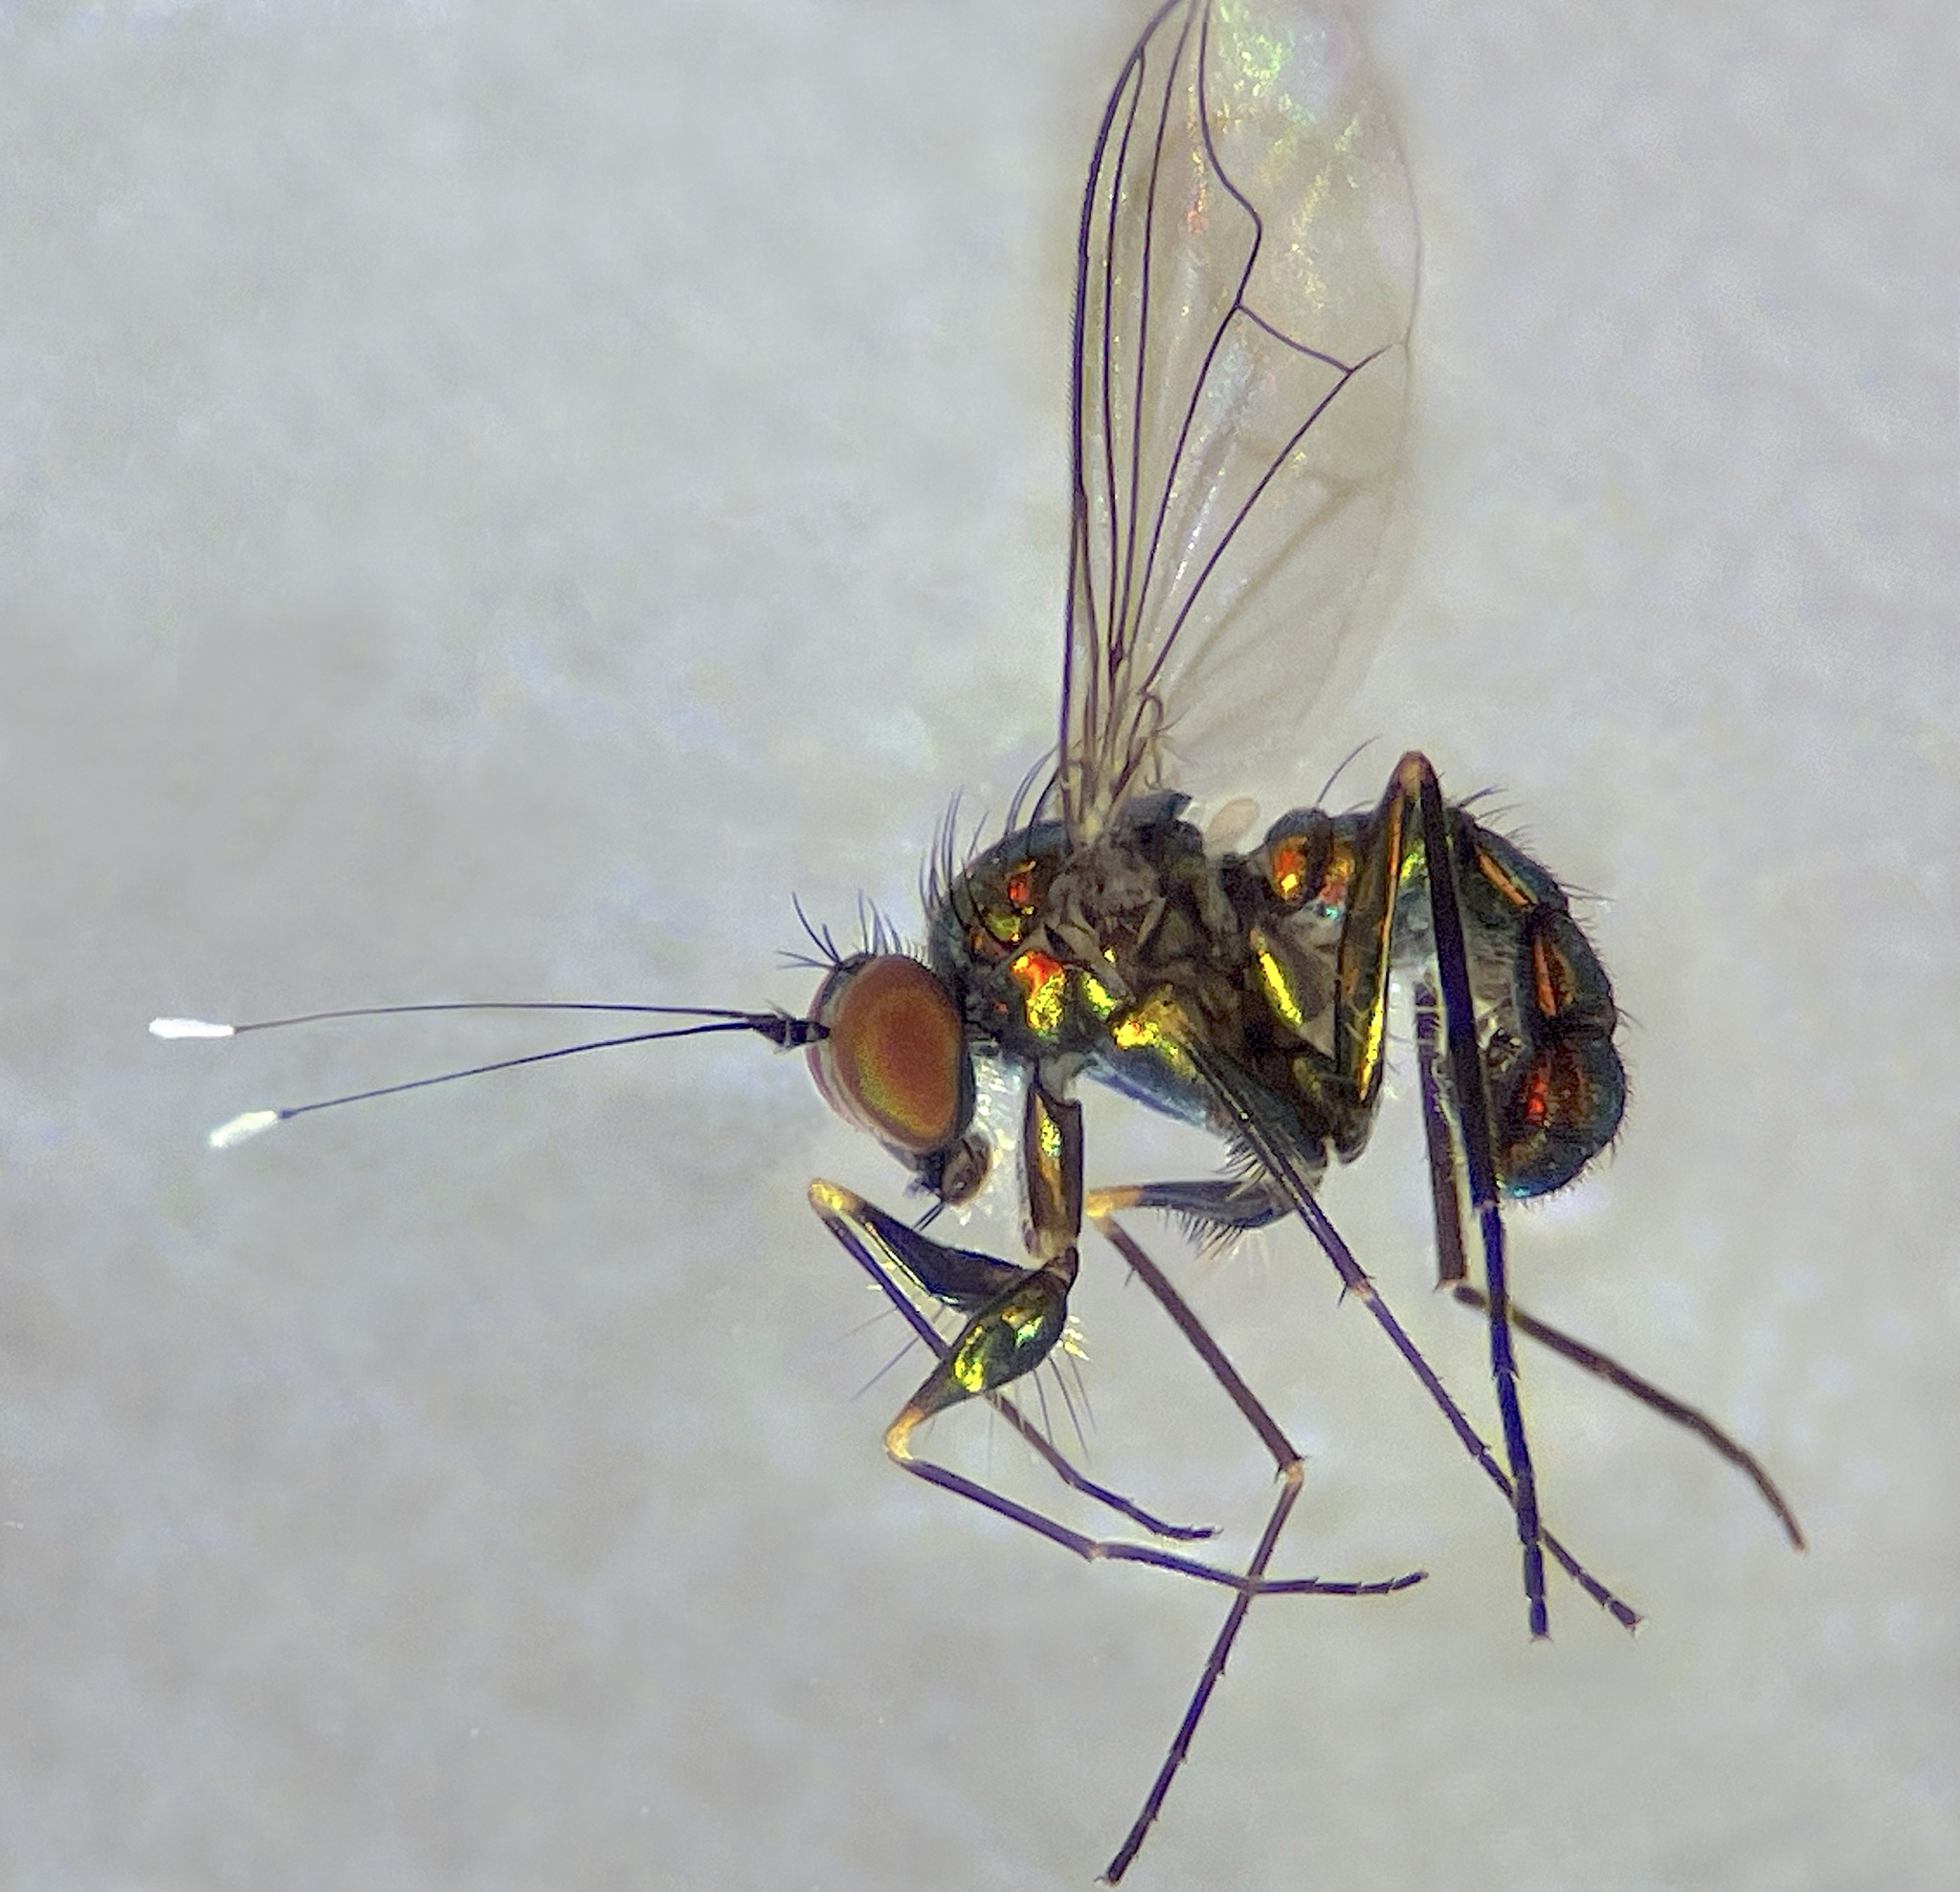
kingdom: Animalia
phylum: Arthropoda
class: Insecta
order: Diptera
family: Dolichopodidae
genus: Parentia
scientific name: Parentia restricta
